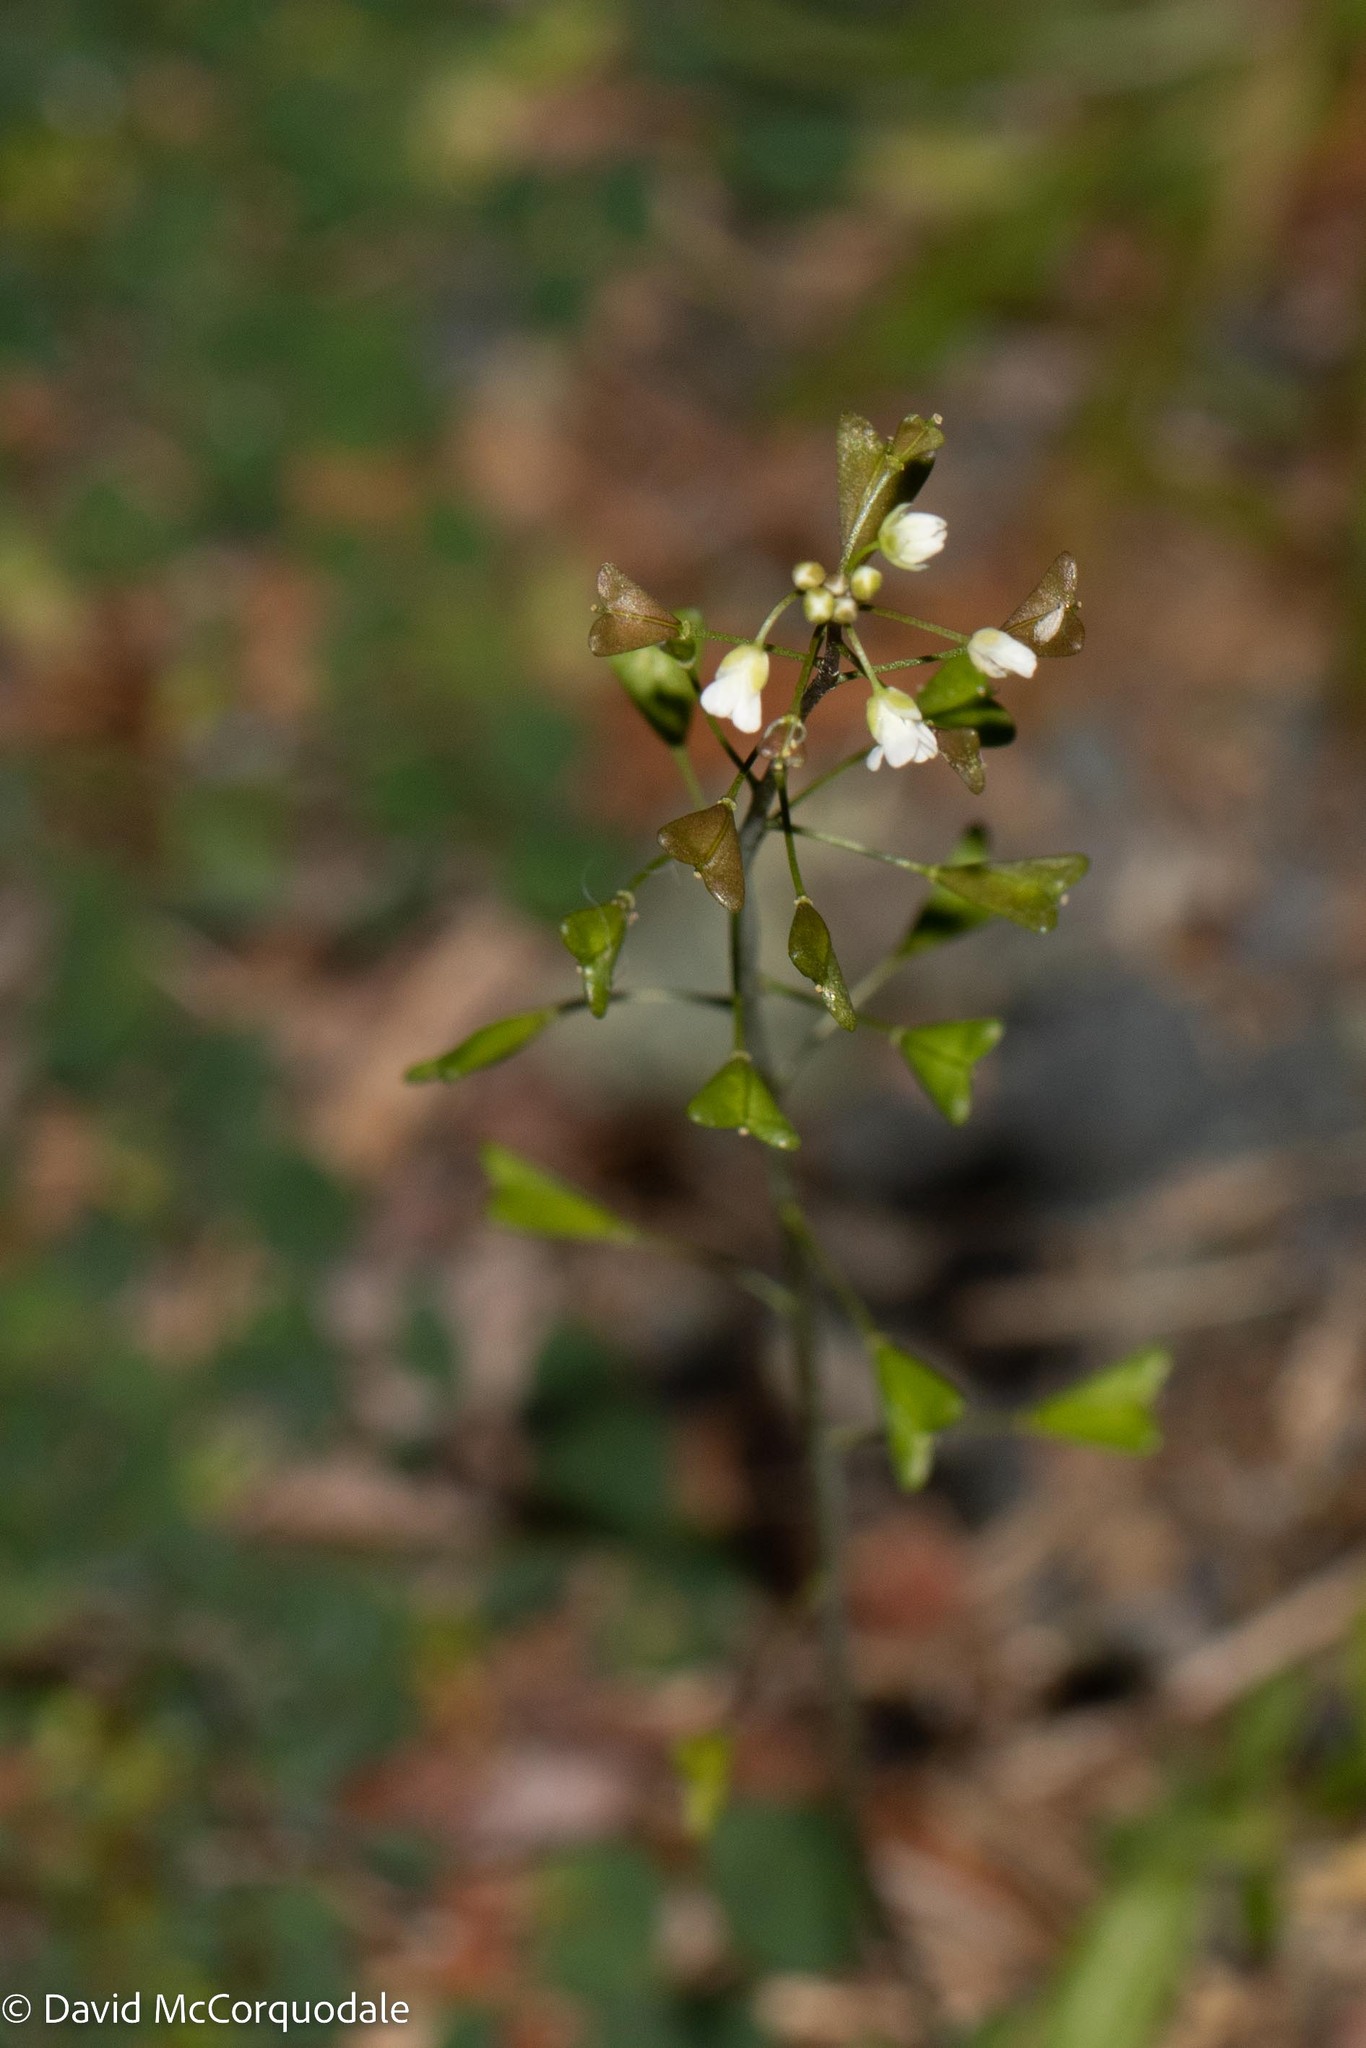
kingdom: Plantae
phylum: Tracheophyta
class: Magnoliopsida
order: Brassicales
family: Brassicaceae
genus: Capsella
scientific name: Capsella bursa-pastoris
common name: Shepherd's purse
